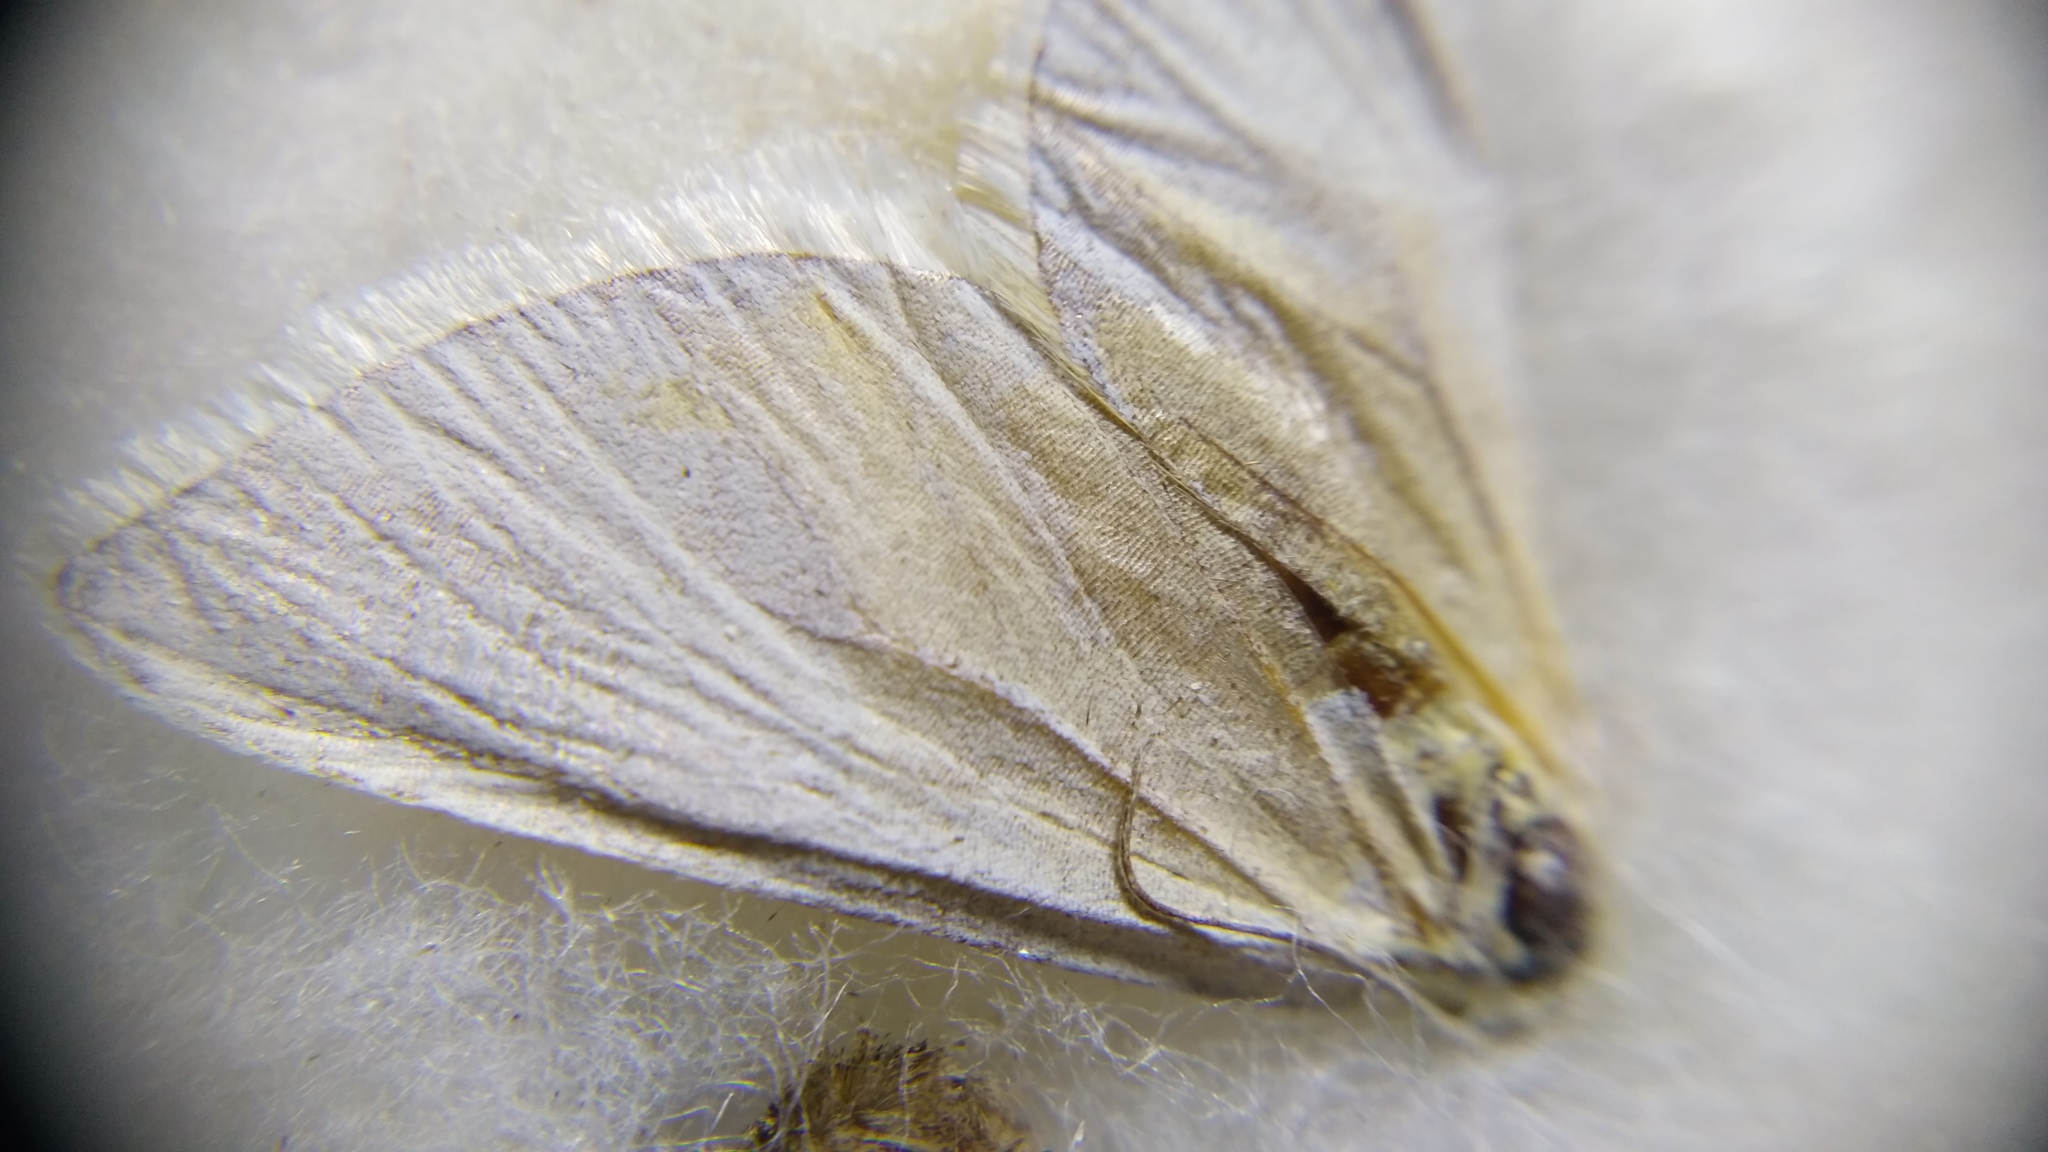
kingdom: Animalia
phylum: Arthropoda
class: Insecta
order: Lepidoptera
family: Geometridae
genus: Lithostege
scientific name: Lithostege farinata
